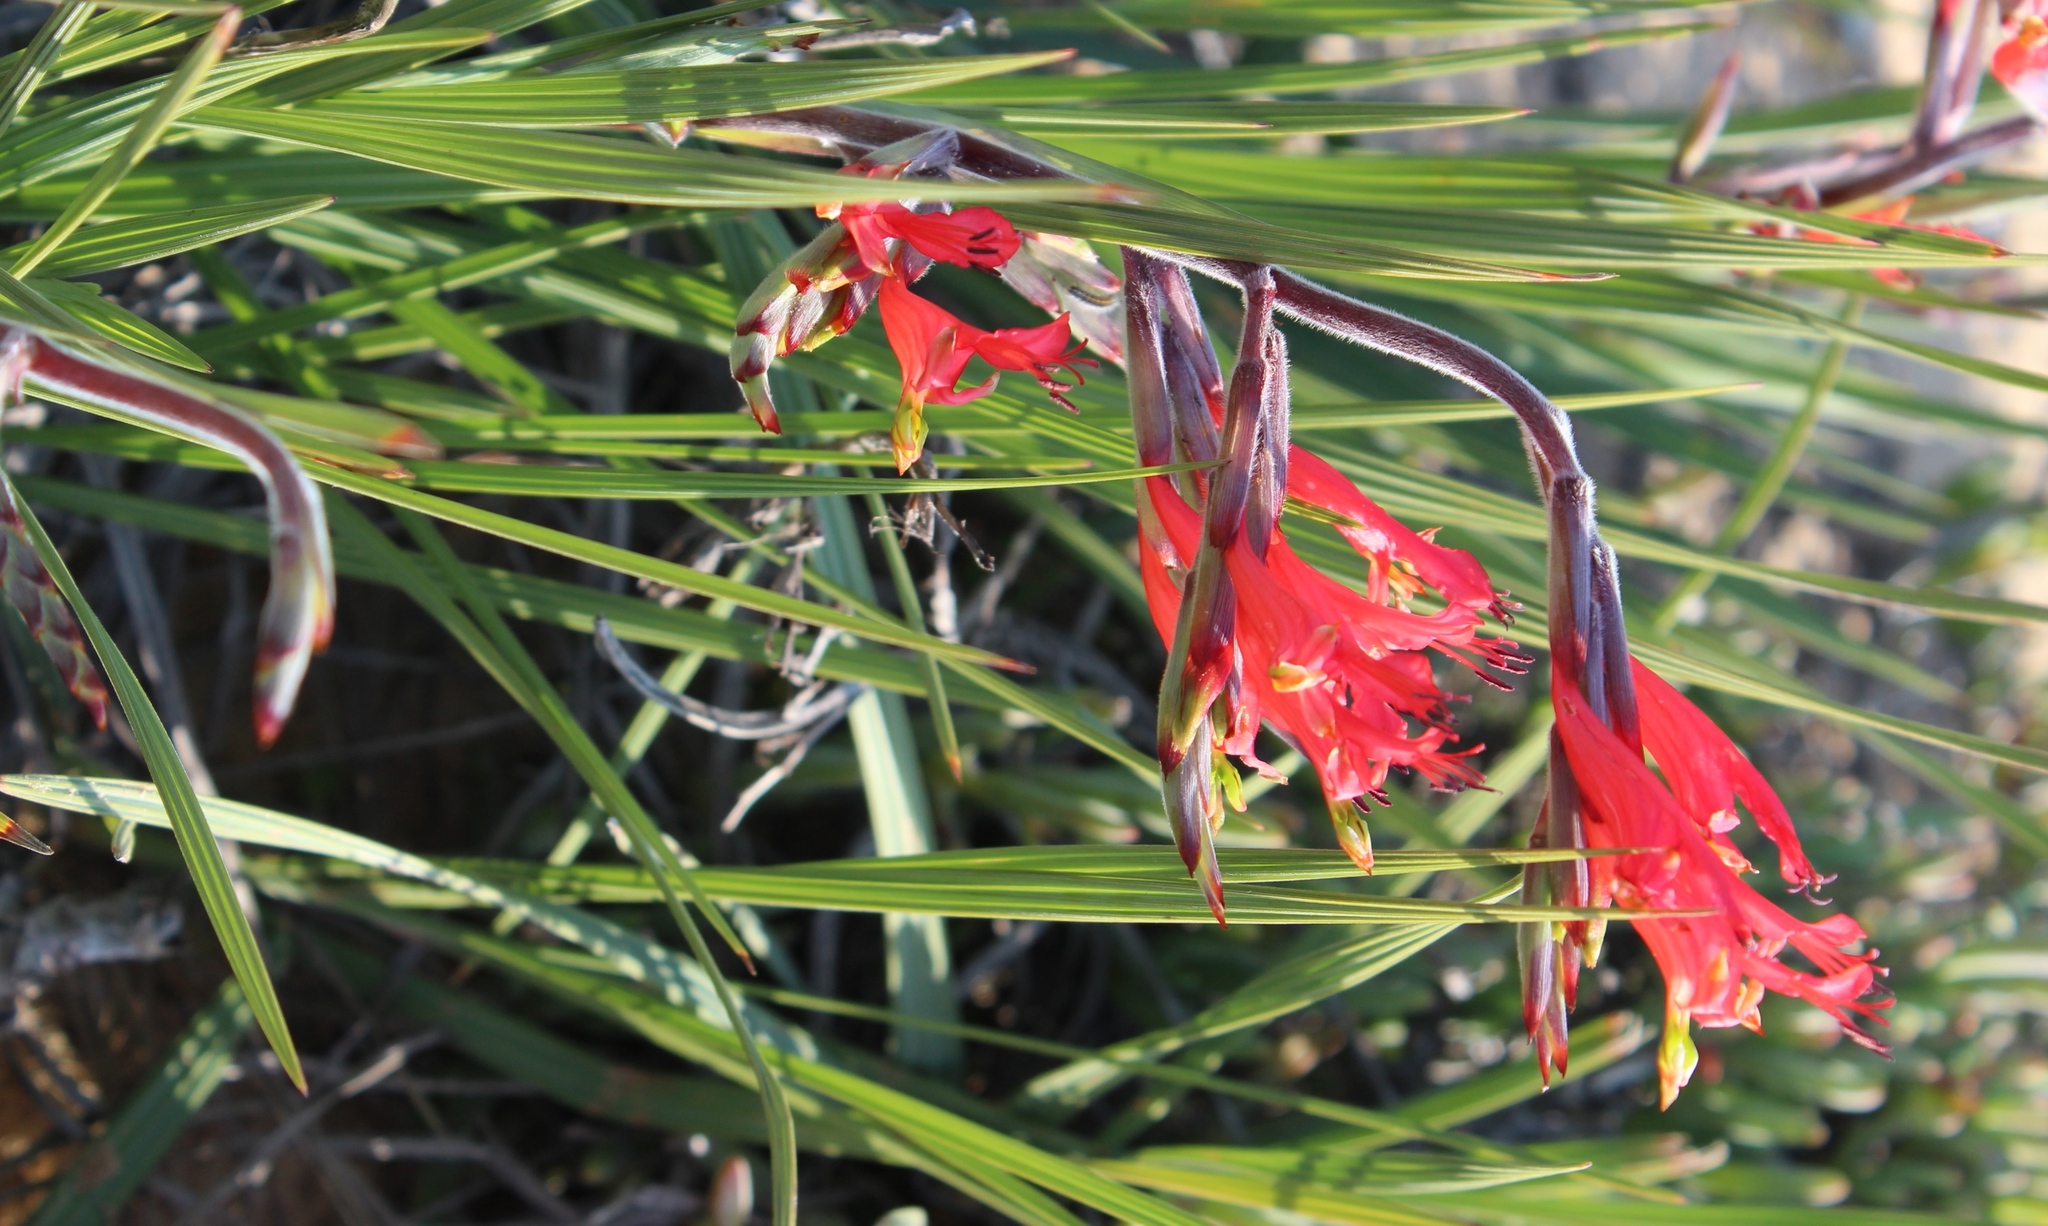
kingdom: Plantae
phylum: Tracheophyta
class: Liliopsida
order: Asparagales
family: Iridaceae
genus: Babiana
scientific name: Babiana hirsuta
